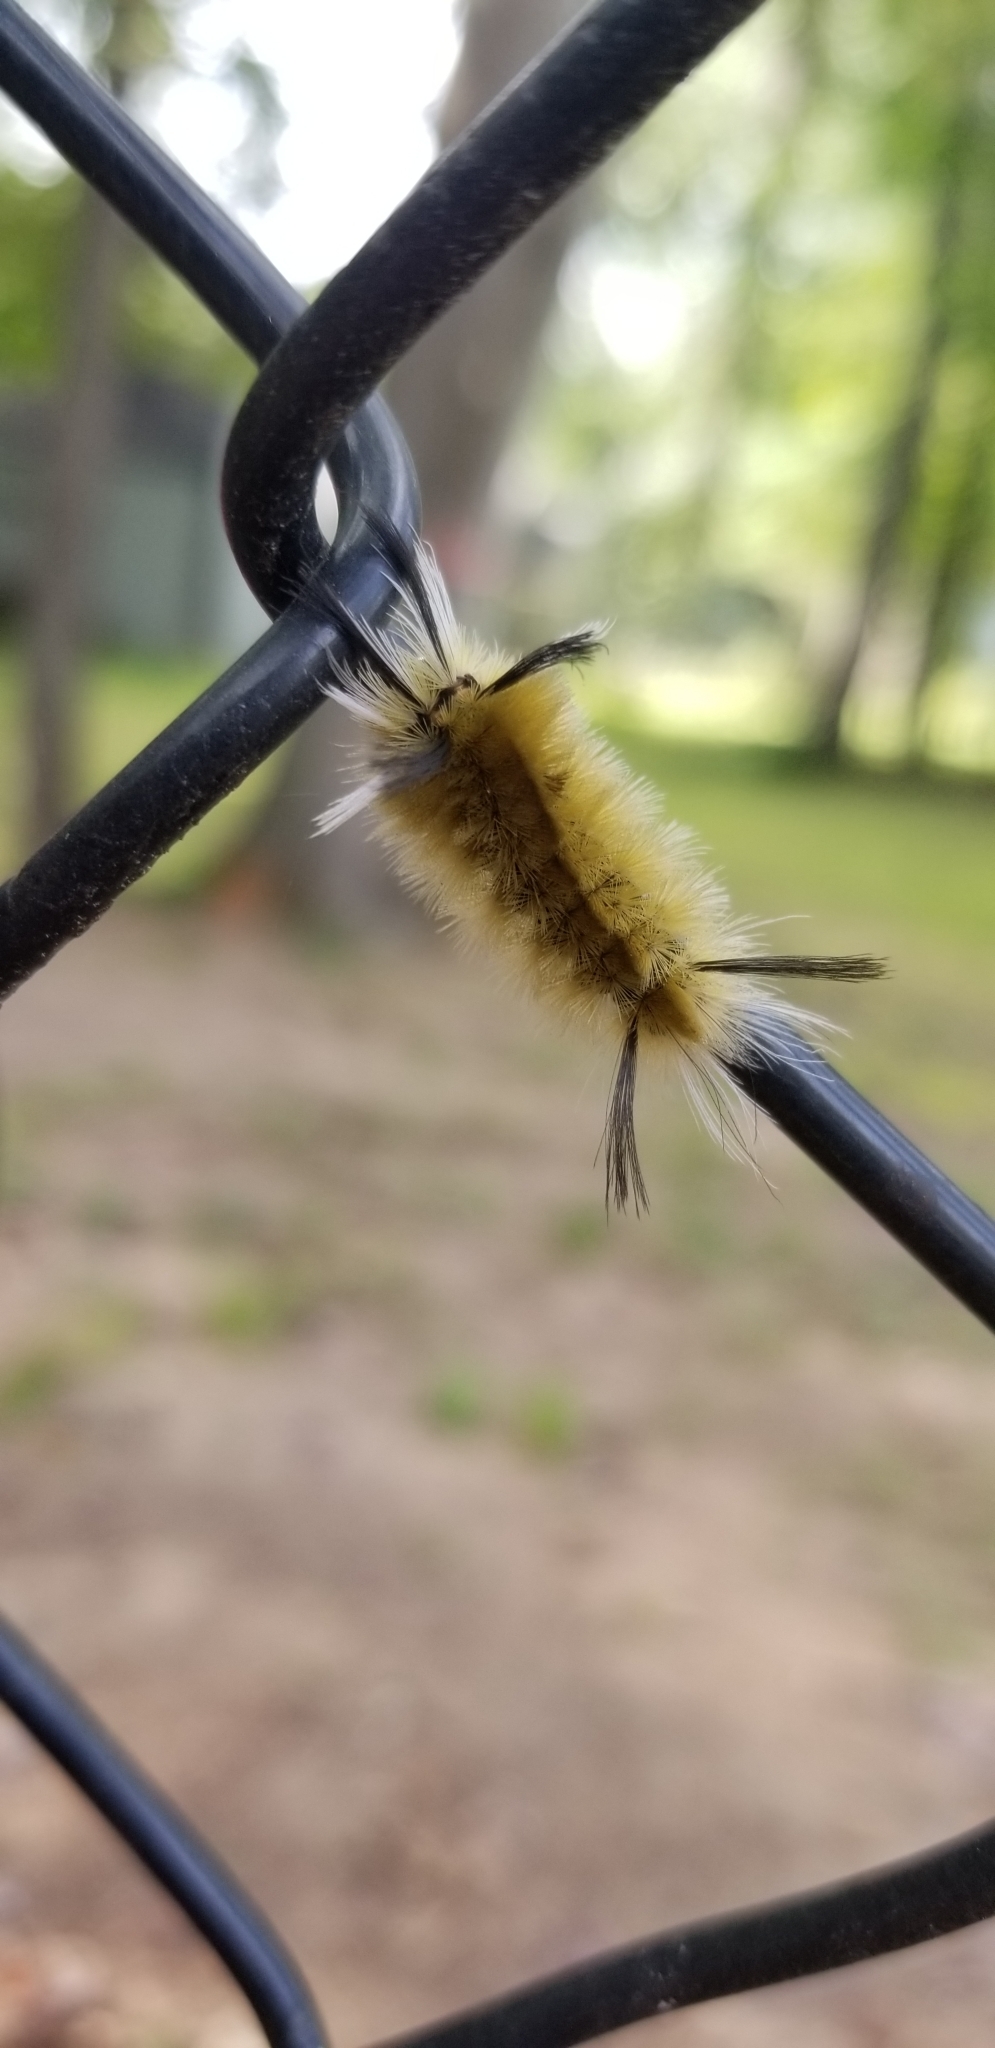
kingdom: Animalia
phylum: Arthropoda
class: Insecta
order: Lepidoptera
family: Erebidae
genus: Halysidota
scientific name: Halysidota tessellaris
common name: Banded tussock moth
